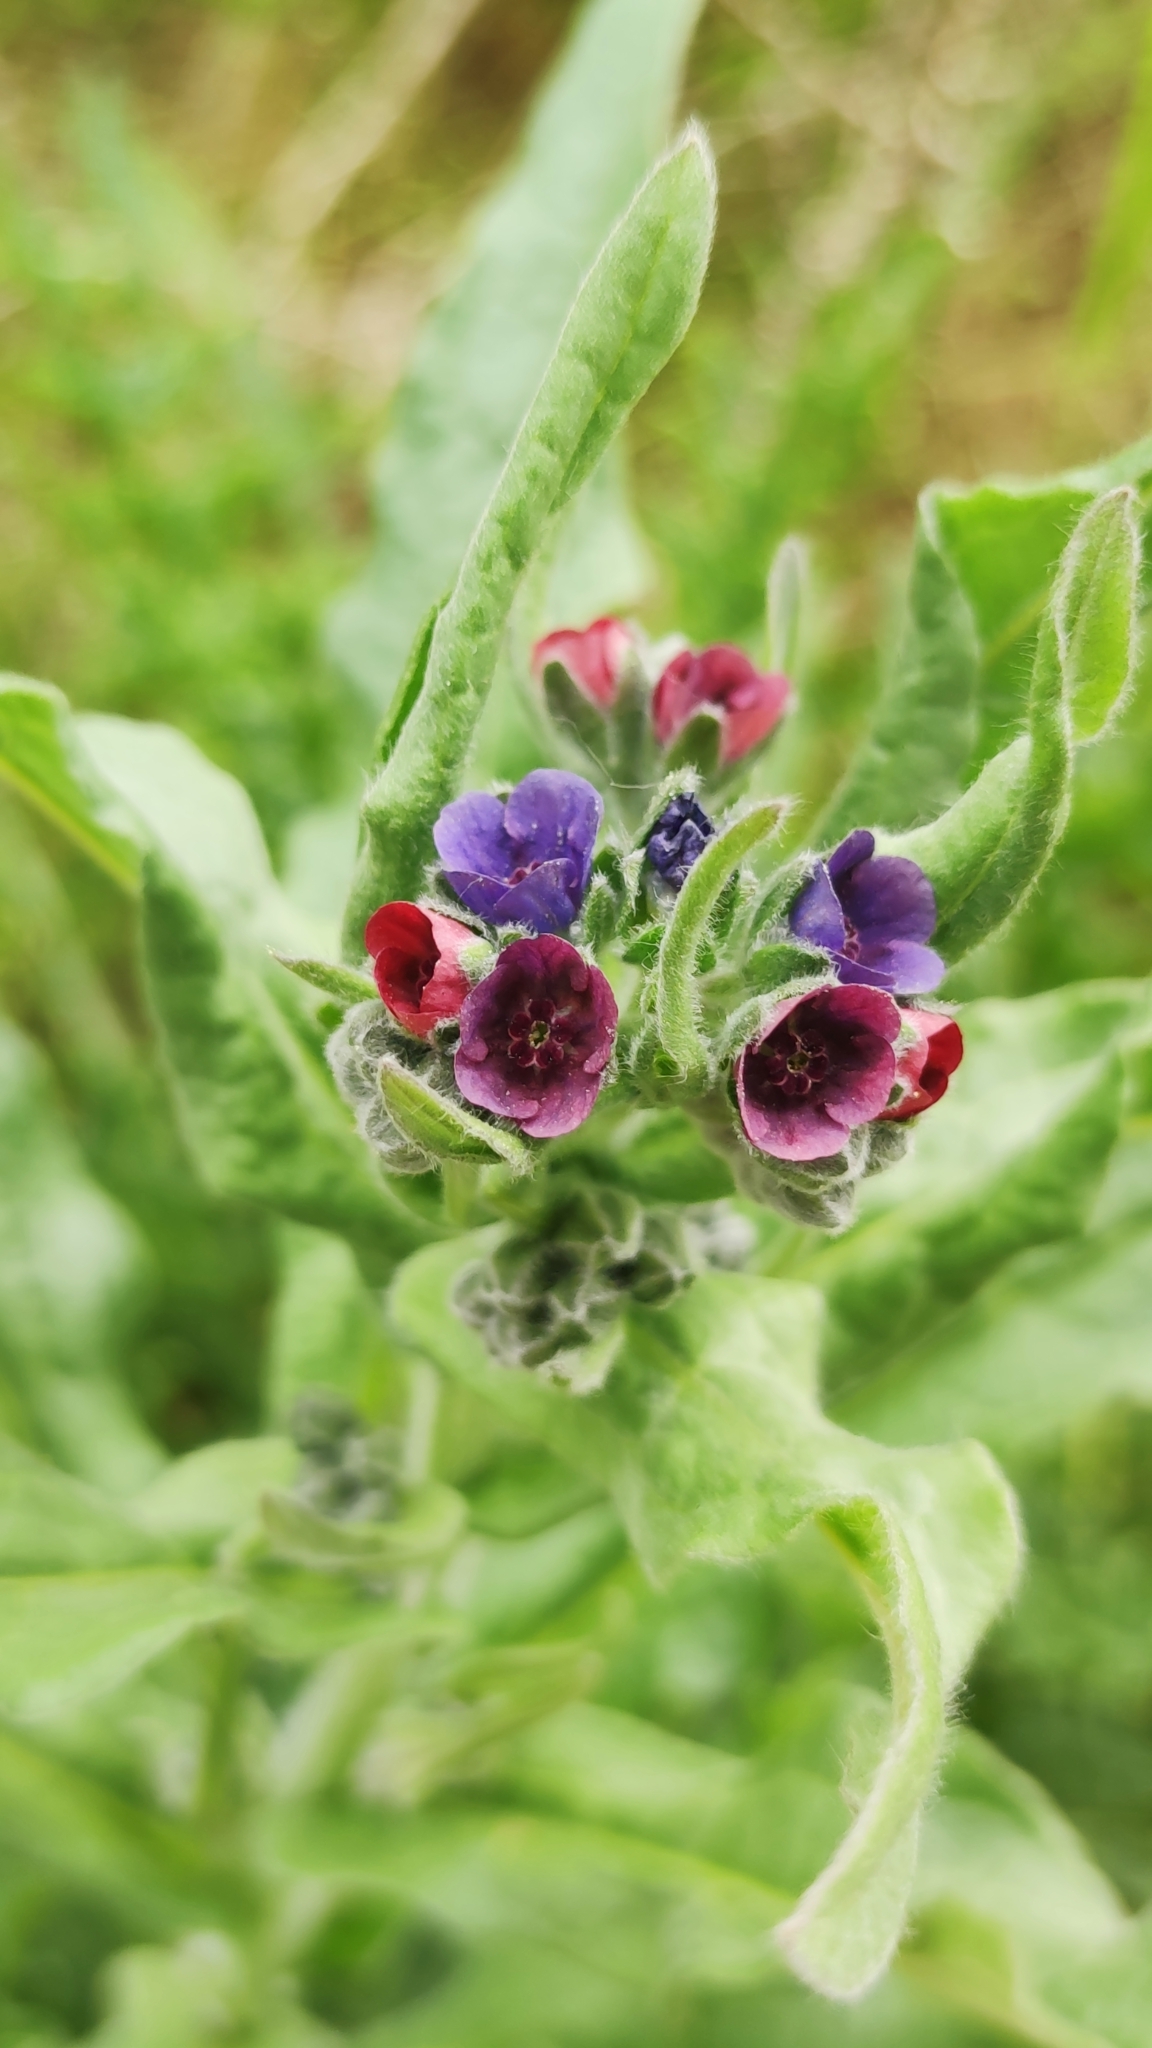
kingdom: Plantae
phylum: Tracheophyta
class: Magnoliopsida
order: Boraginales
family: Boraginaceae
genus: Cynoglossum
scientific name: Cynoglossum officinale
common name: Hound's-tongue
